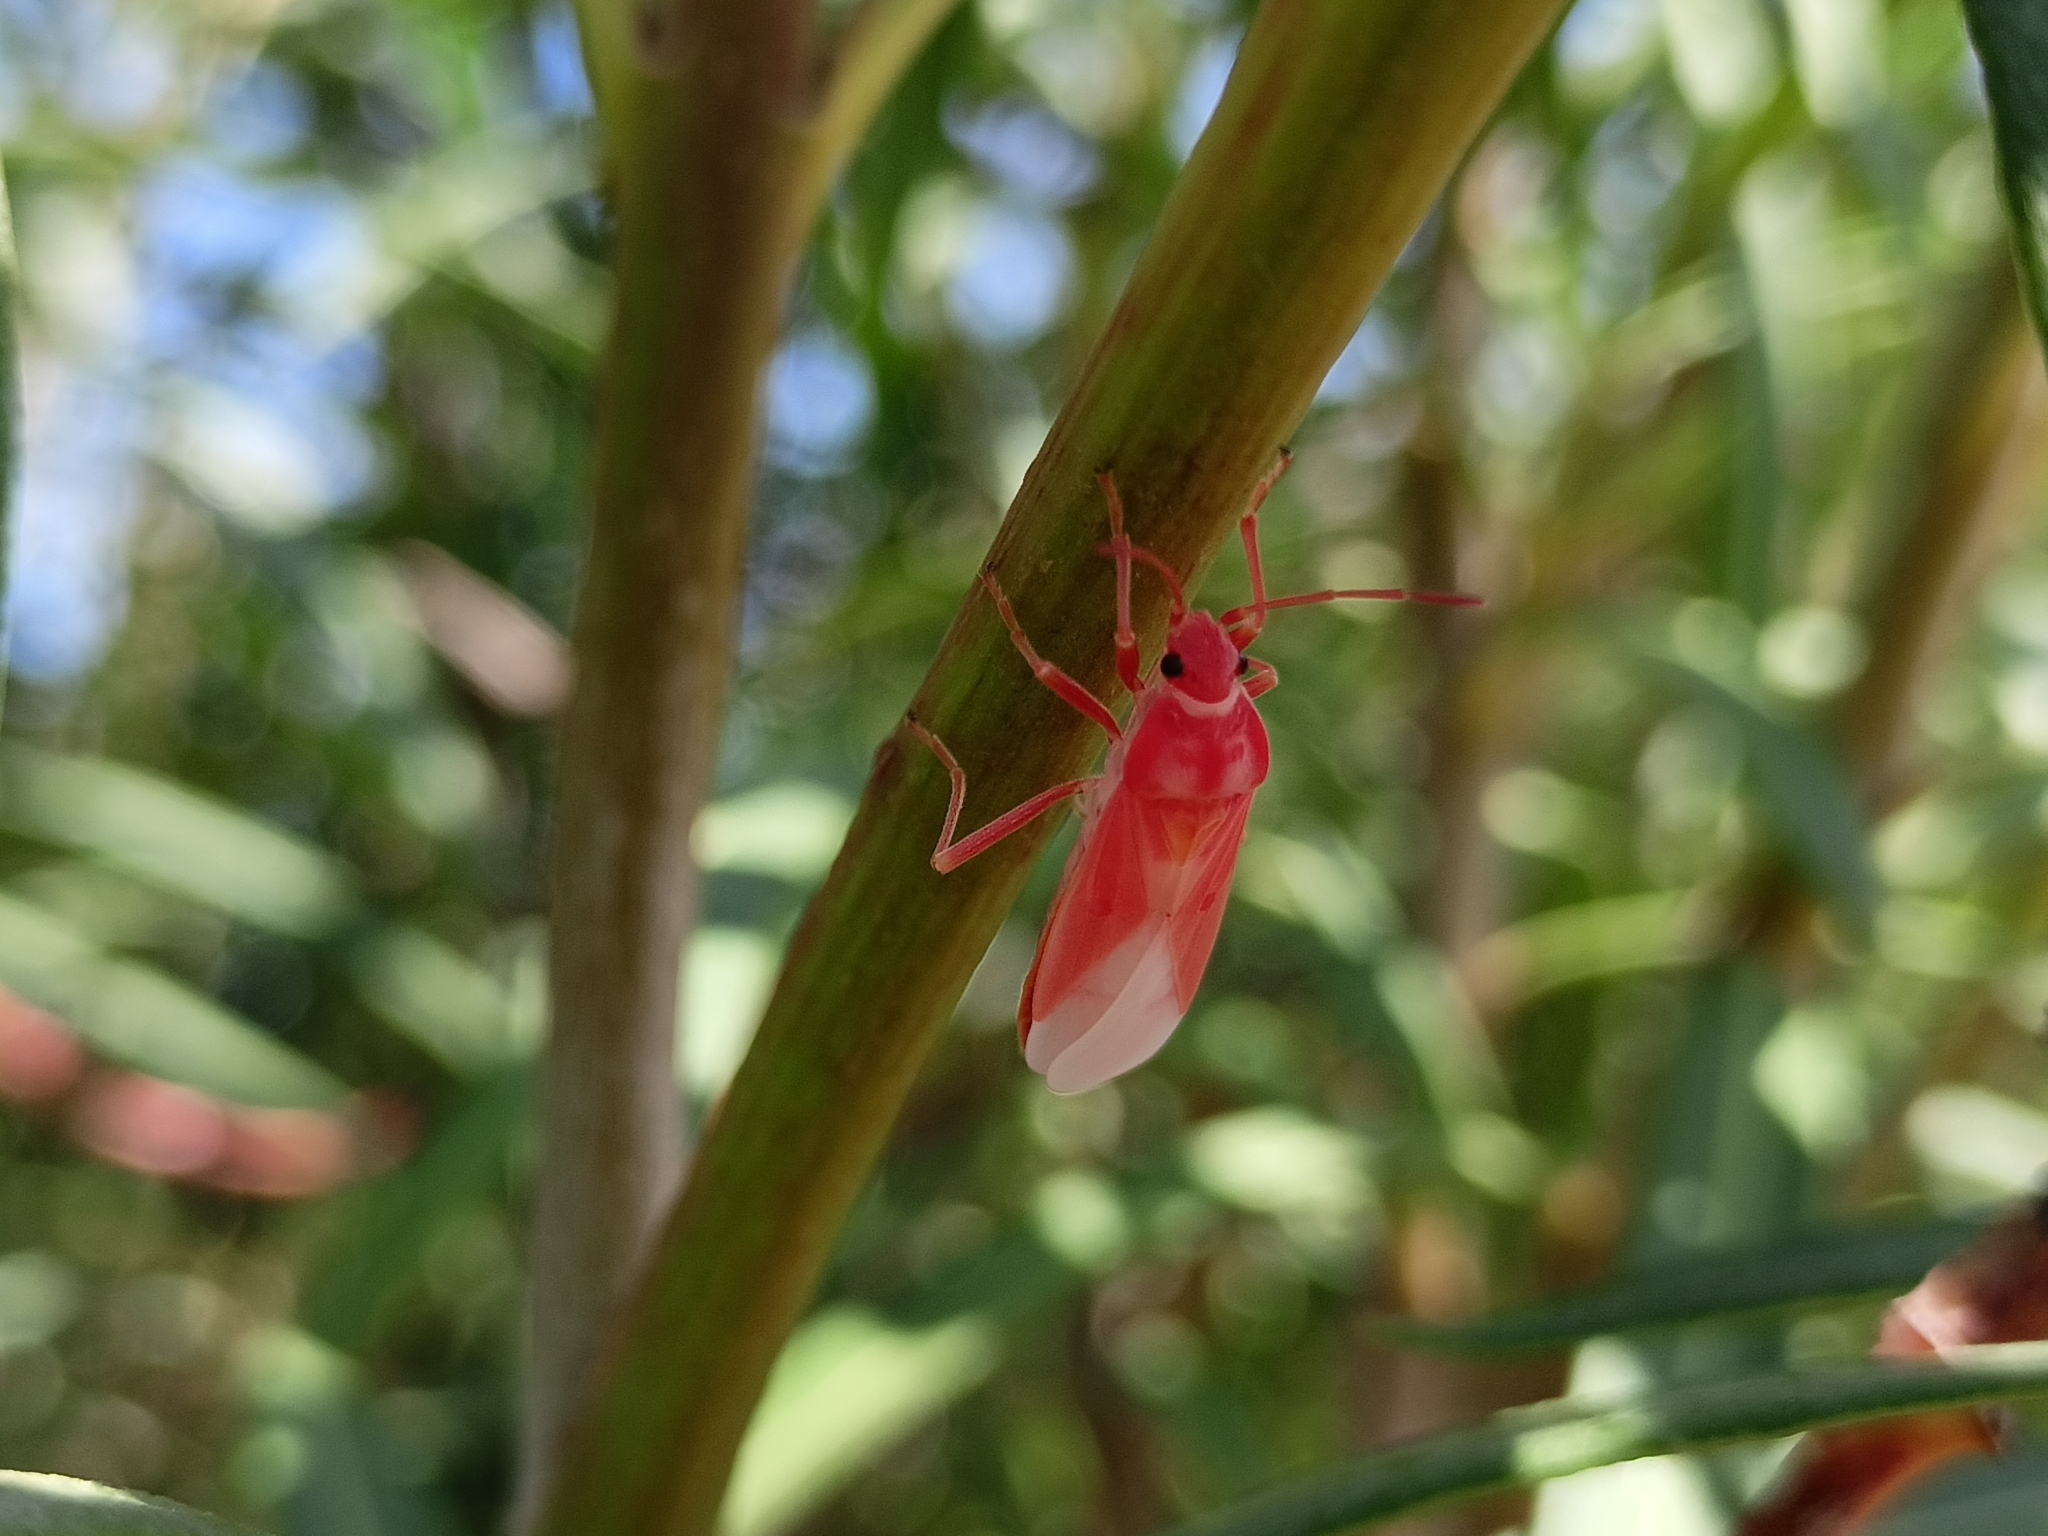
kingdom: Animalia
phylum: Arthropoda
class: Insecta
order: Hemiptera
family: Lygaeidae
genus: Lygaeus
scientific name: Lygaeus creticus
